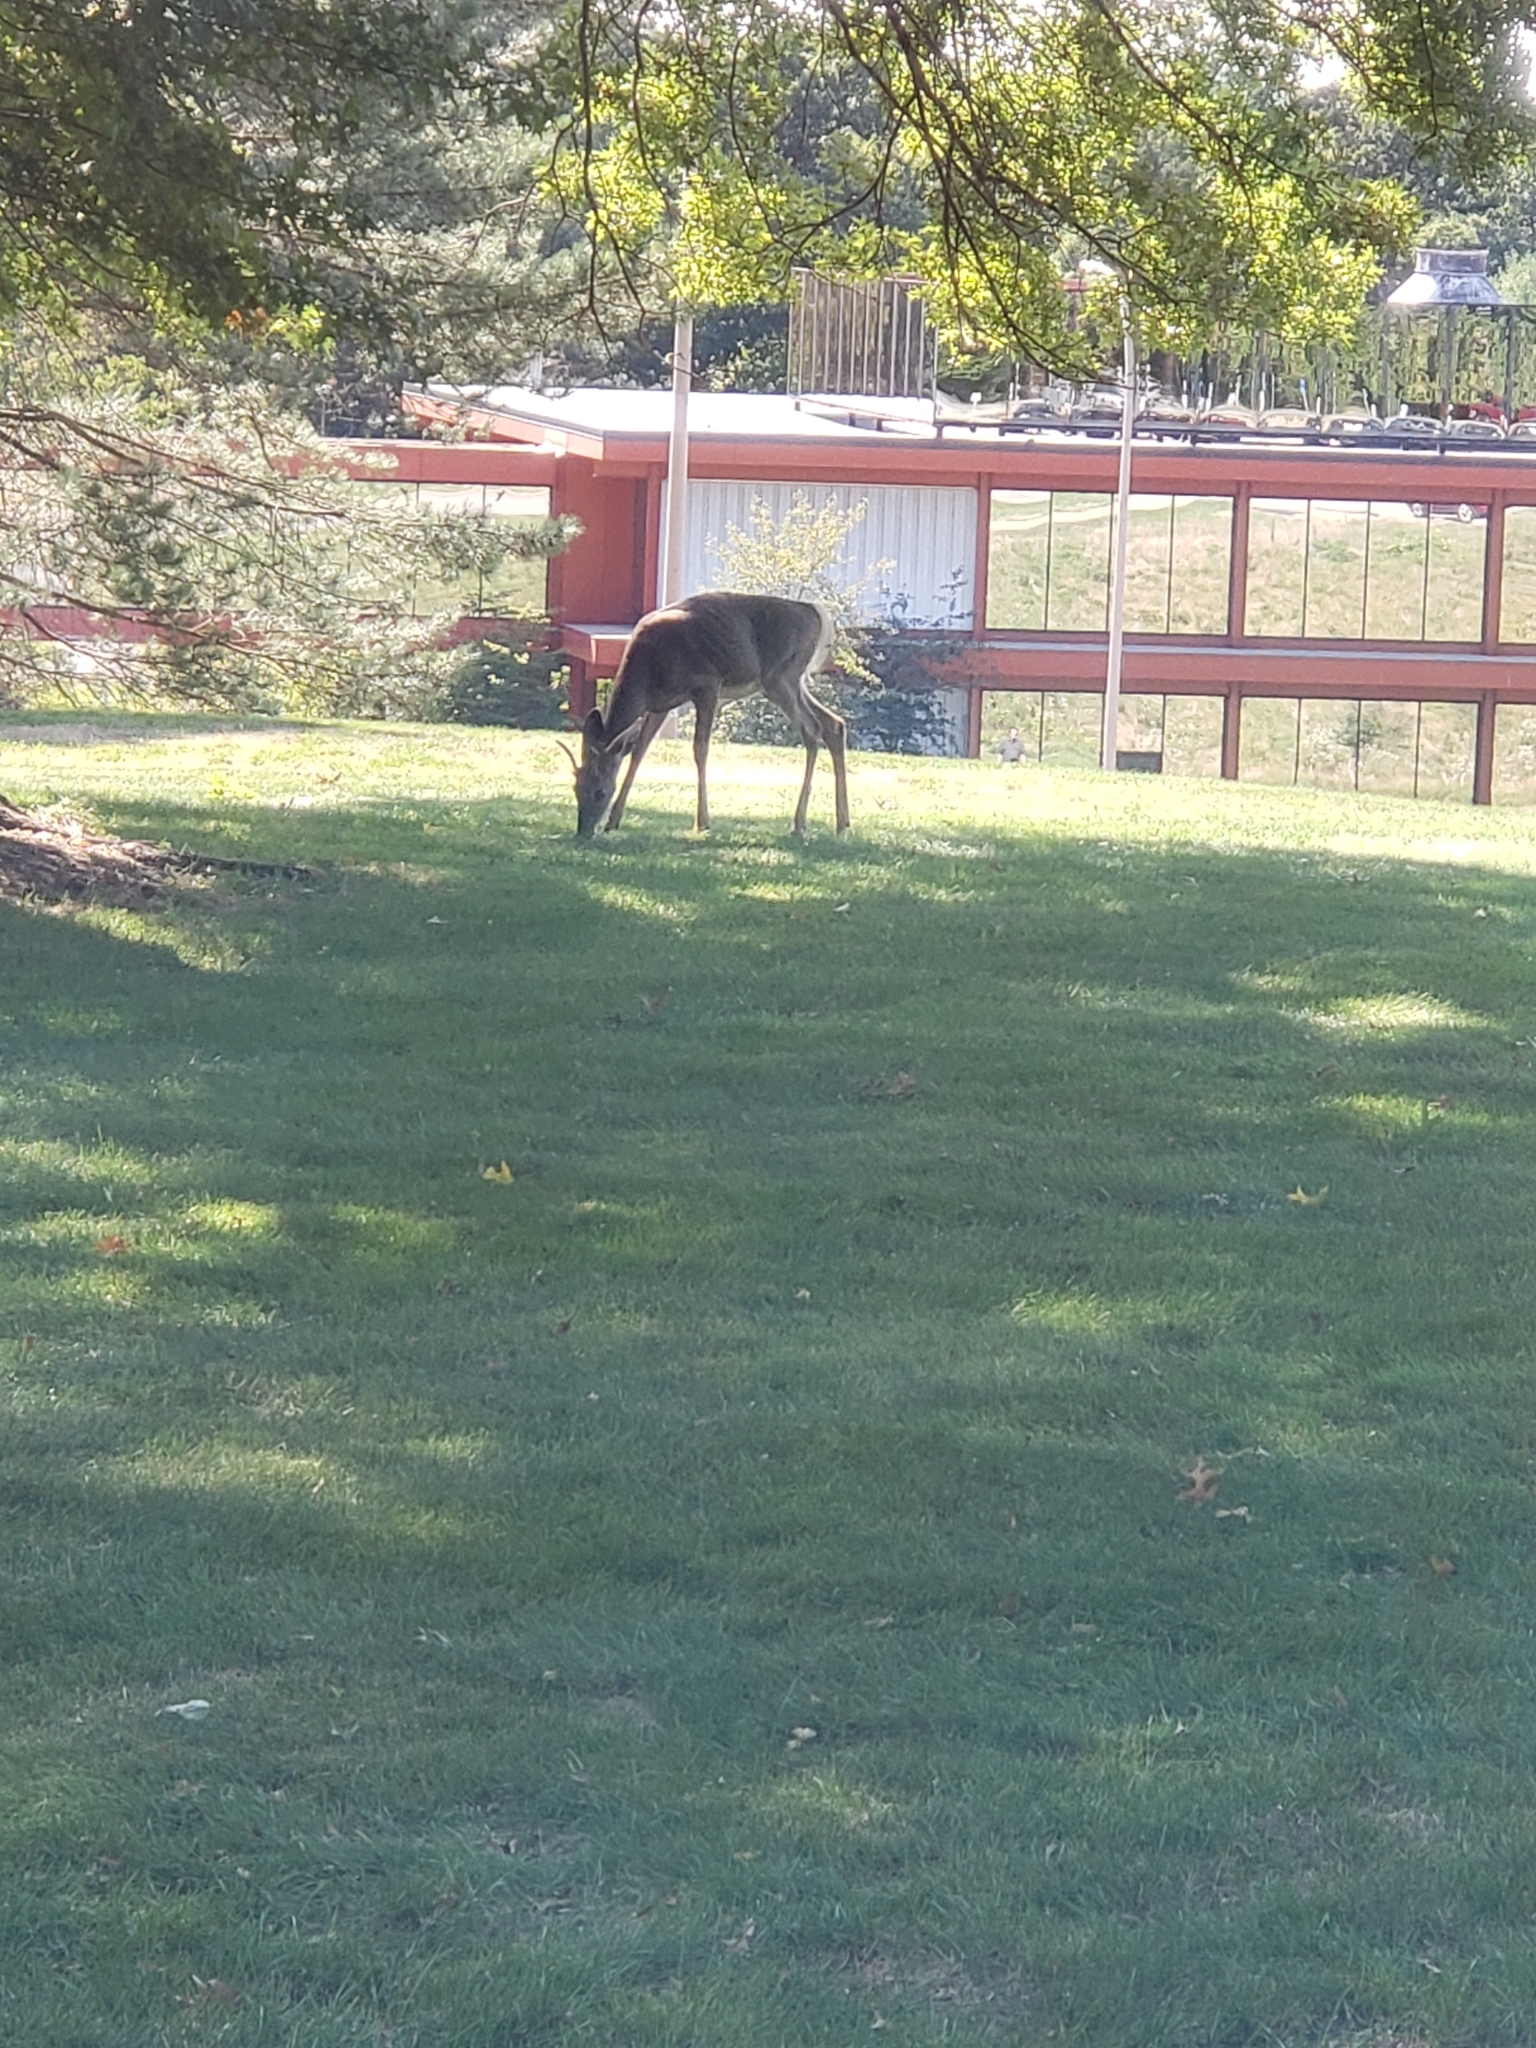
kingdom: Animalia
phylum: Chordata
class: Mammalia
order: Artiodactyla
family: Cervidae
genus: Odocoileus
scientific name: Odocoileus virginianus
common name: White-tailed deer
